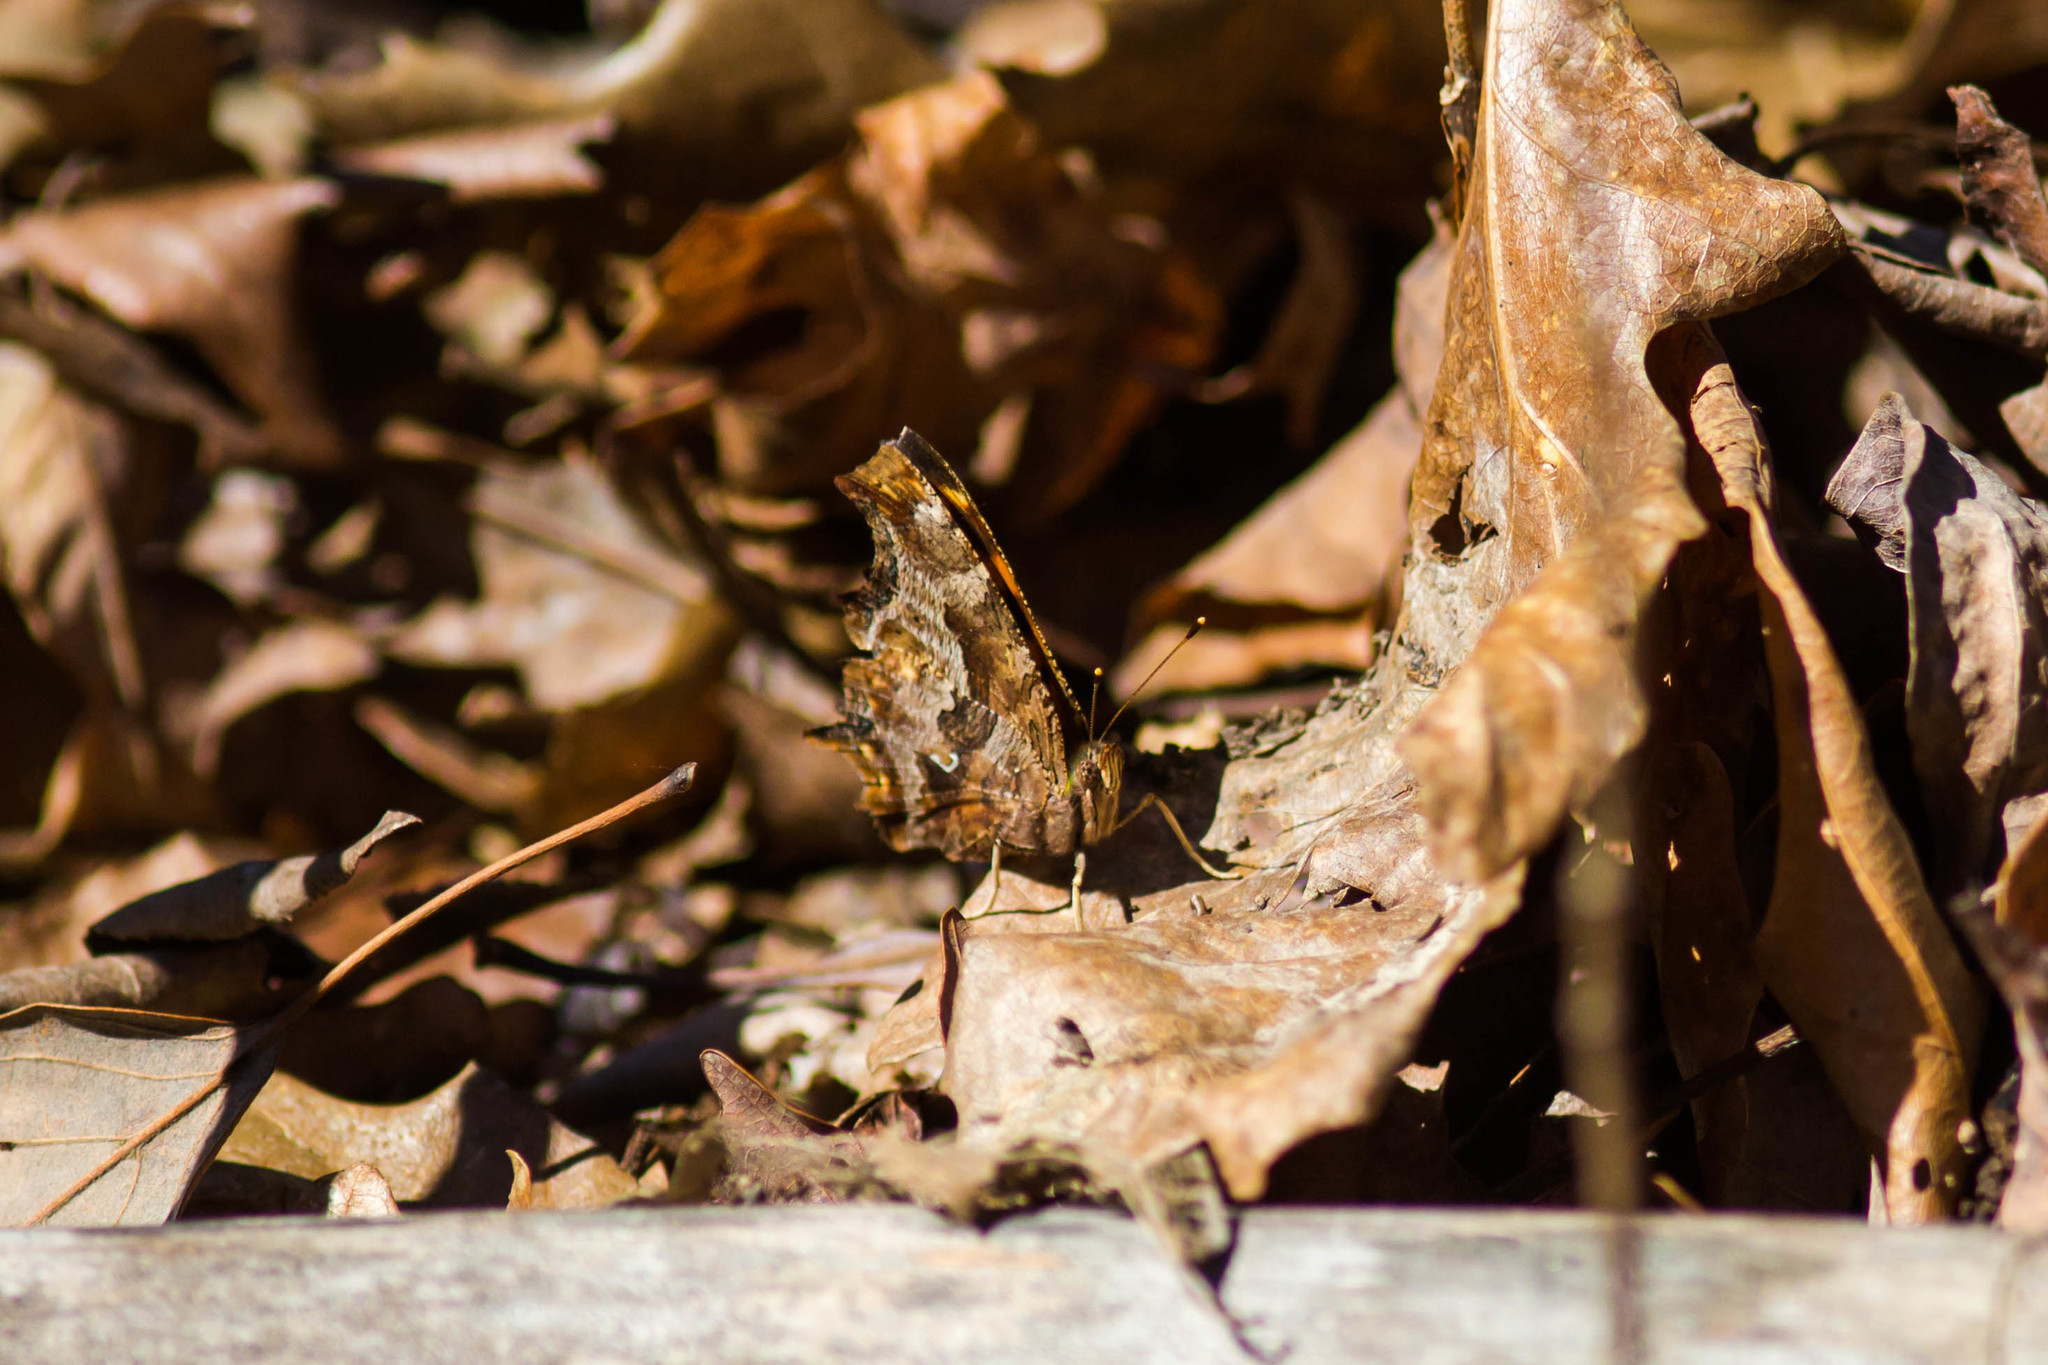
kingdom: Animalia
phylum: Arthropoda
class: Insecta
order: Lepidoptera
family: Nymphalidae
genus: Polygonia
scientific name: Polygonia comma
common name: Eastern comma
